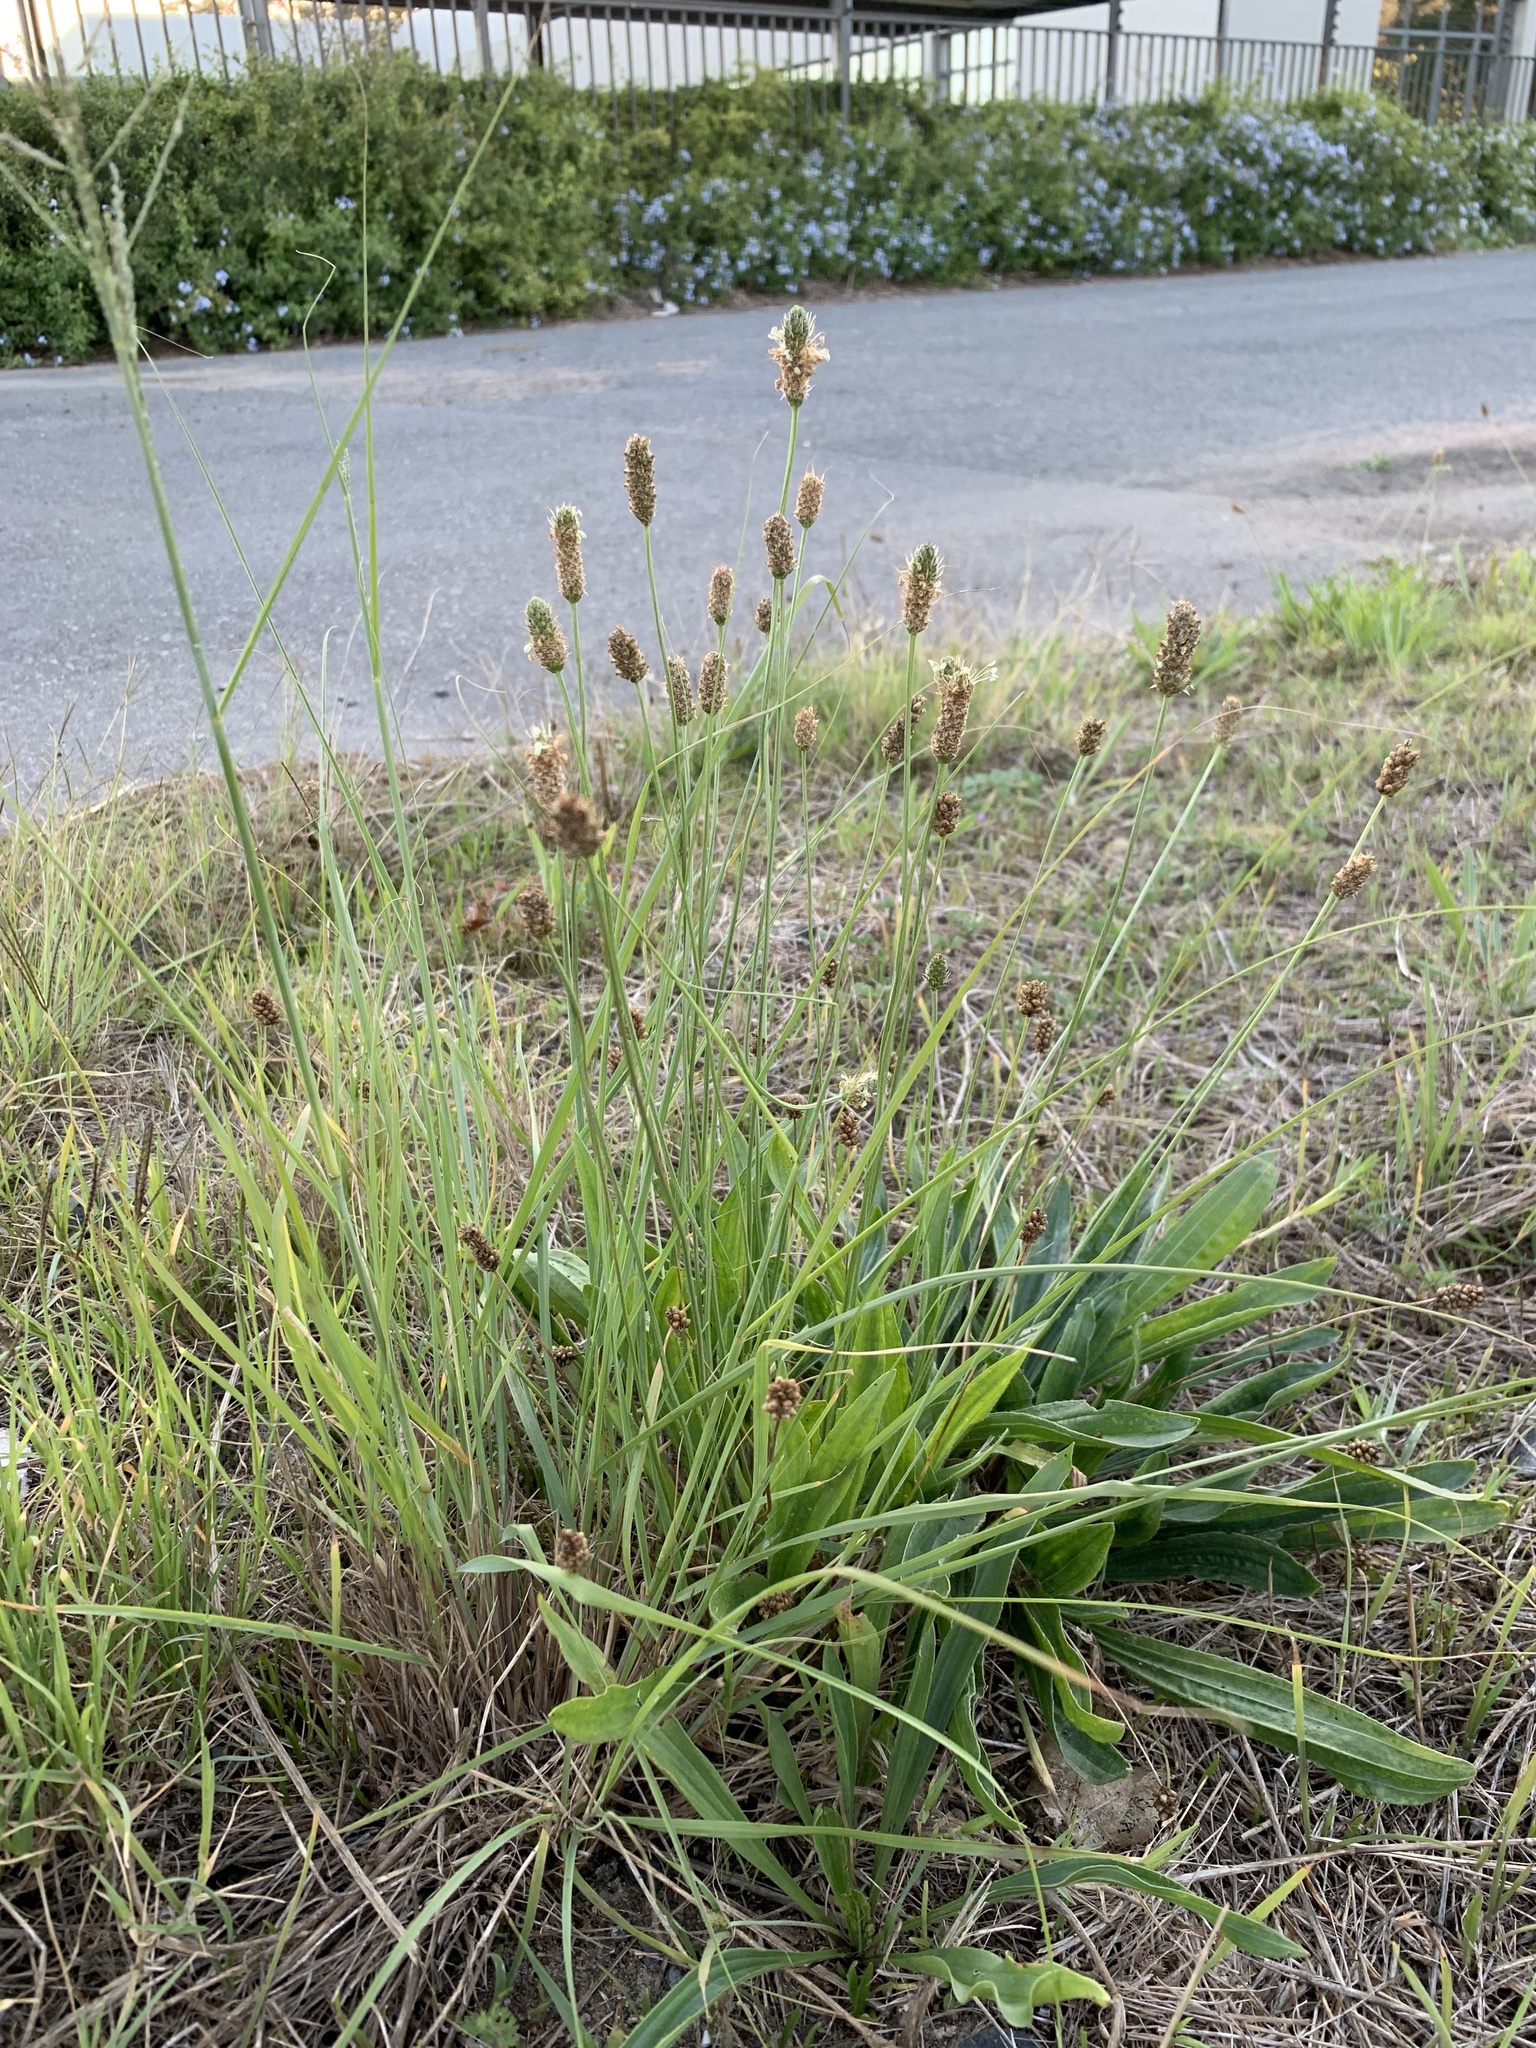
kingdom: Plantae
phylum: Tracheophyta
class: Magnoliopsida
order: Lamiales
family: Plantaginaceae
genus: Plantago
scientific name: Plantago lanceolata
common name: Ribwort plantain
